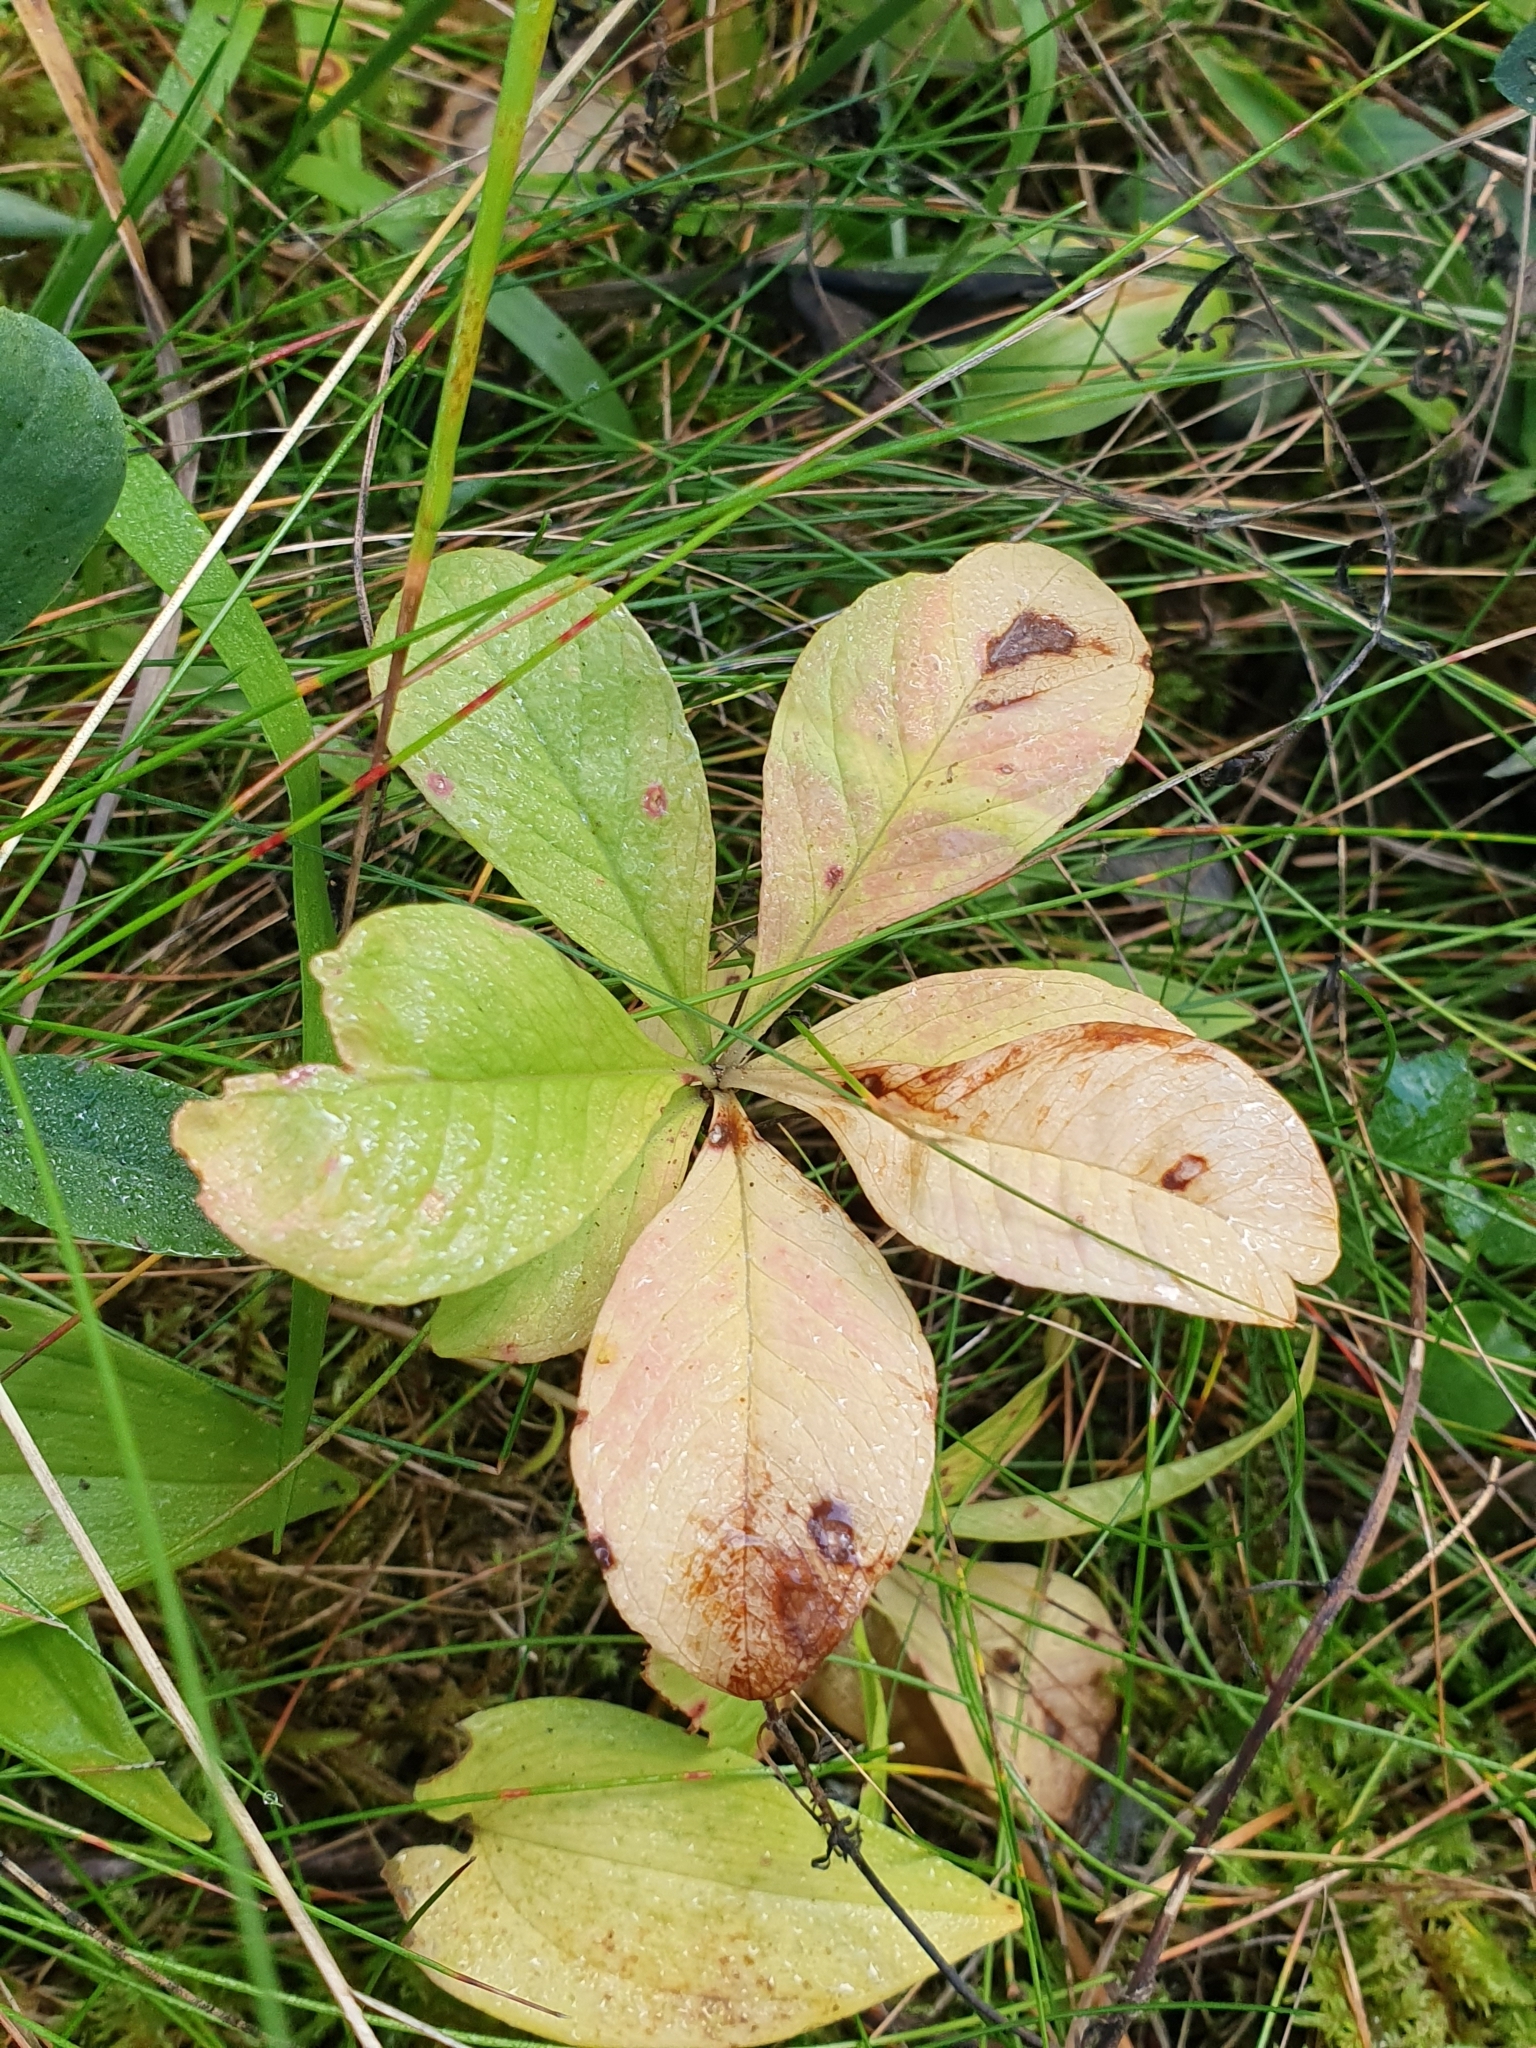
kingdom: Plantae
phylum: Tracheophyta
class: Magnoliopsida
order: Ericales
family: Primulaceae
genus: Lysimachia
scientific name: Lysimachia europaea
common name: Arctic starflower
